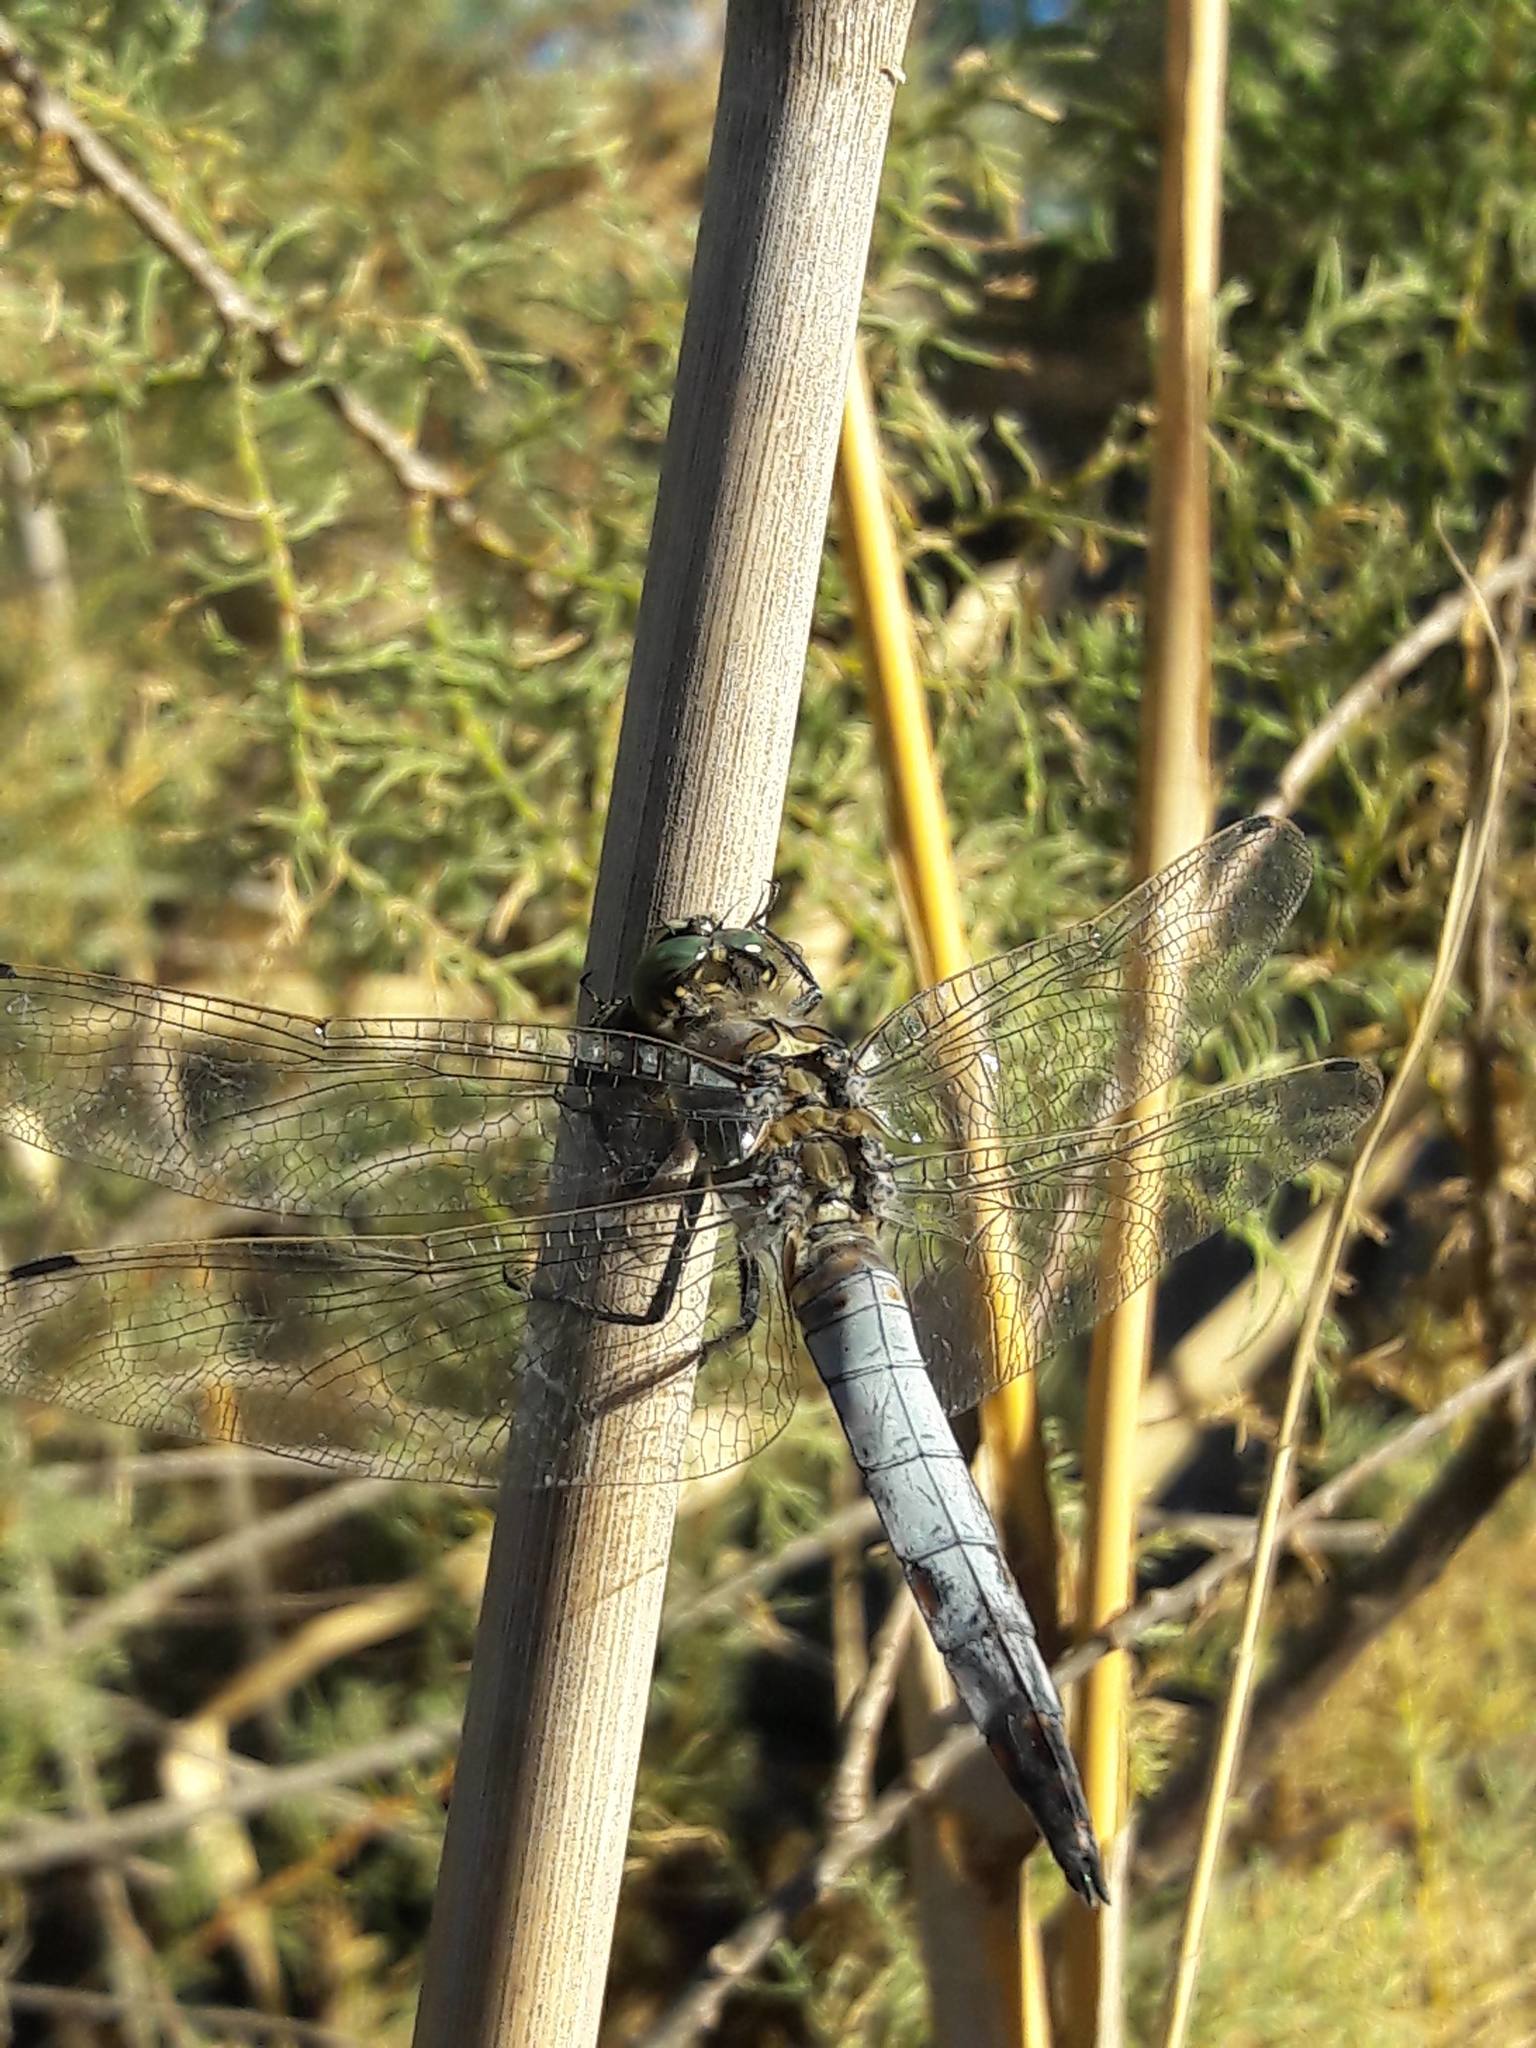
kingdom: Animalia
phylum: Arthropoda
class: Insecta
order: Odonata
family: Libellulidae
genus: Orthetrum
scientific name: Orthetrum cancellatum
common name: Black-tailed skimmer
